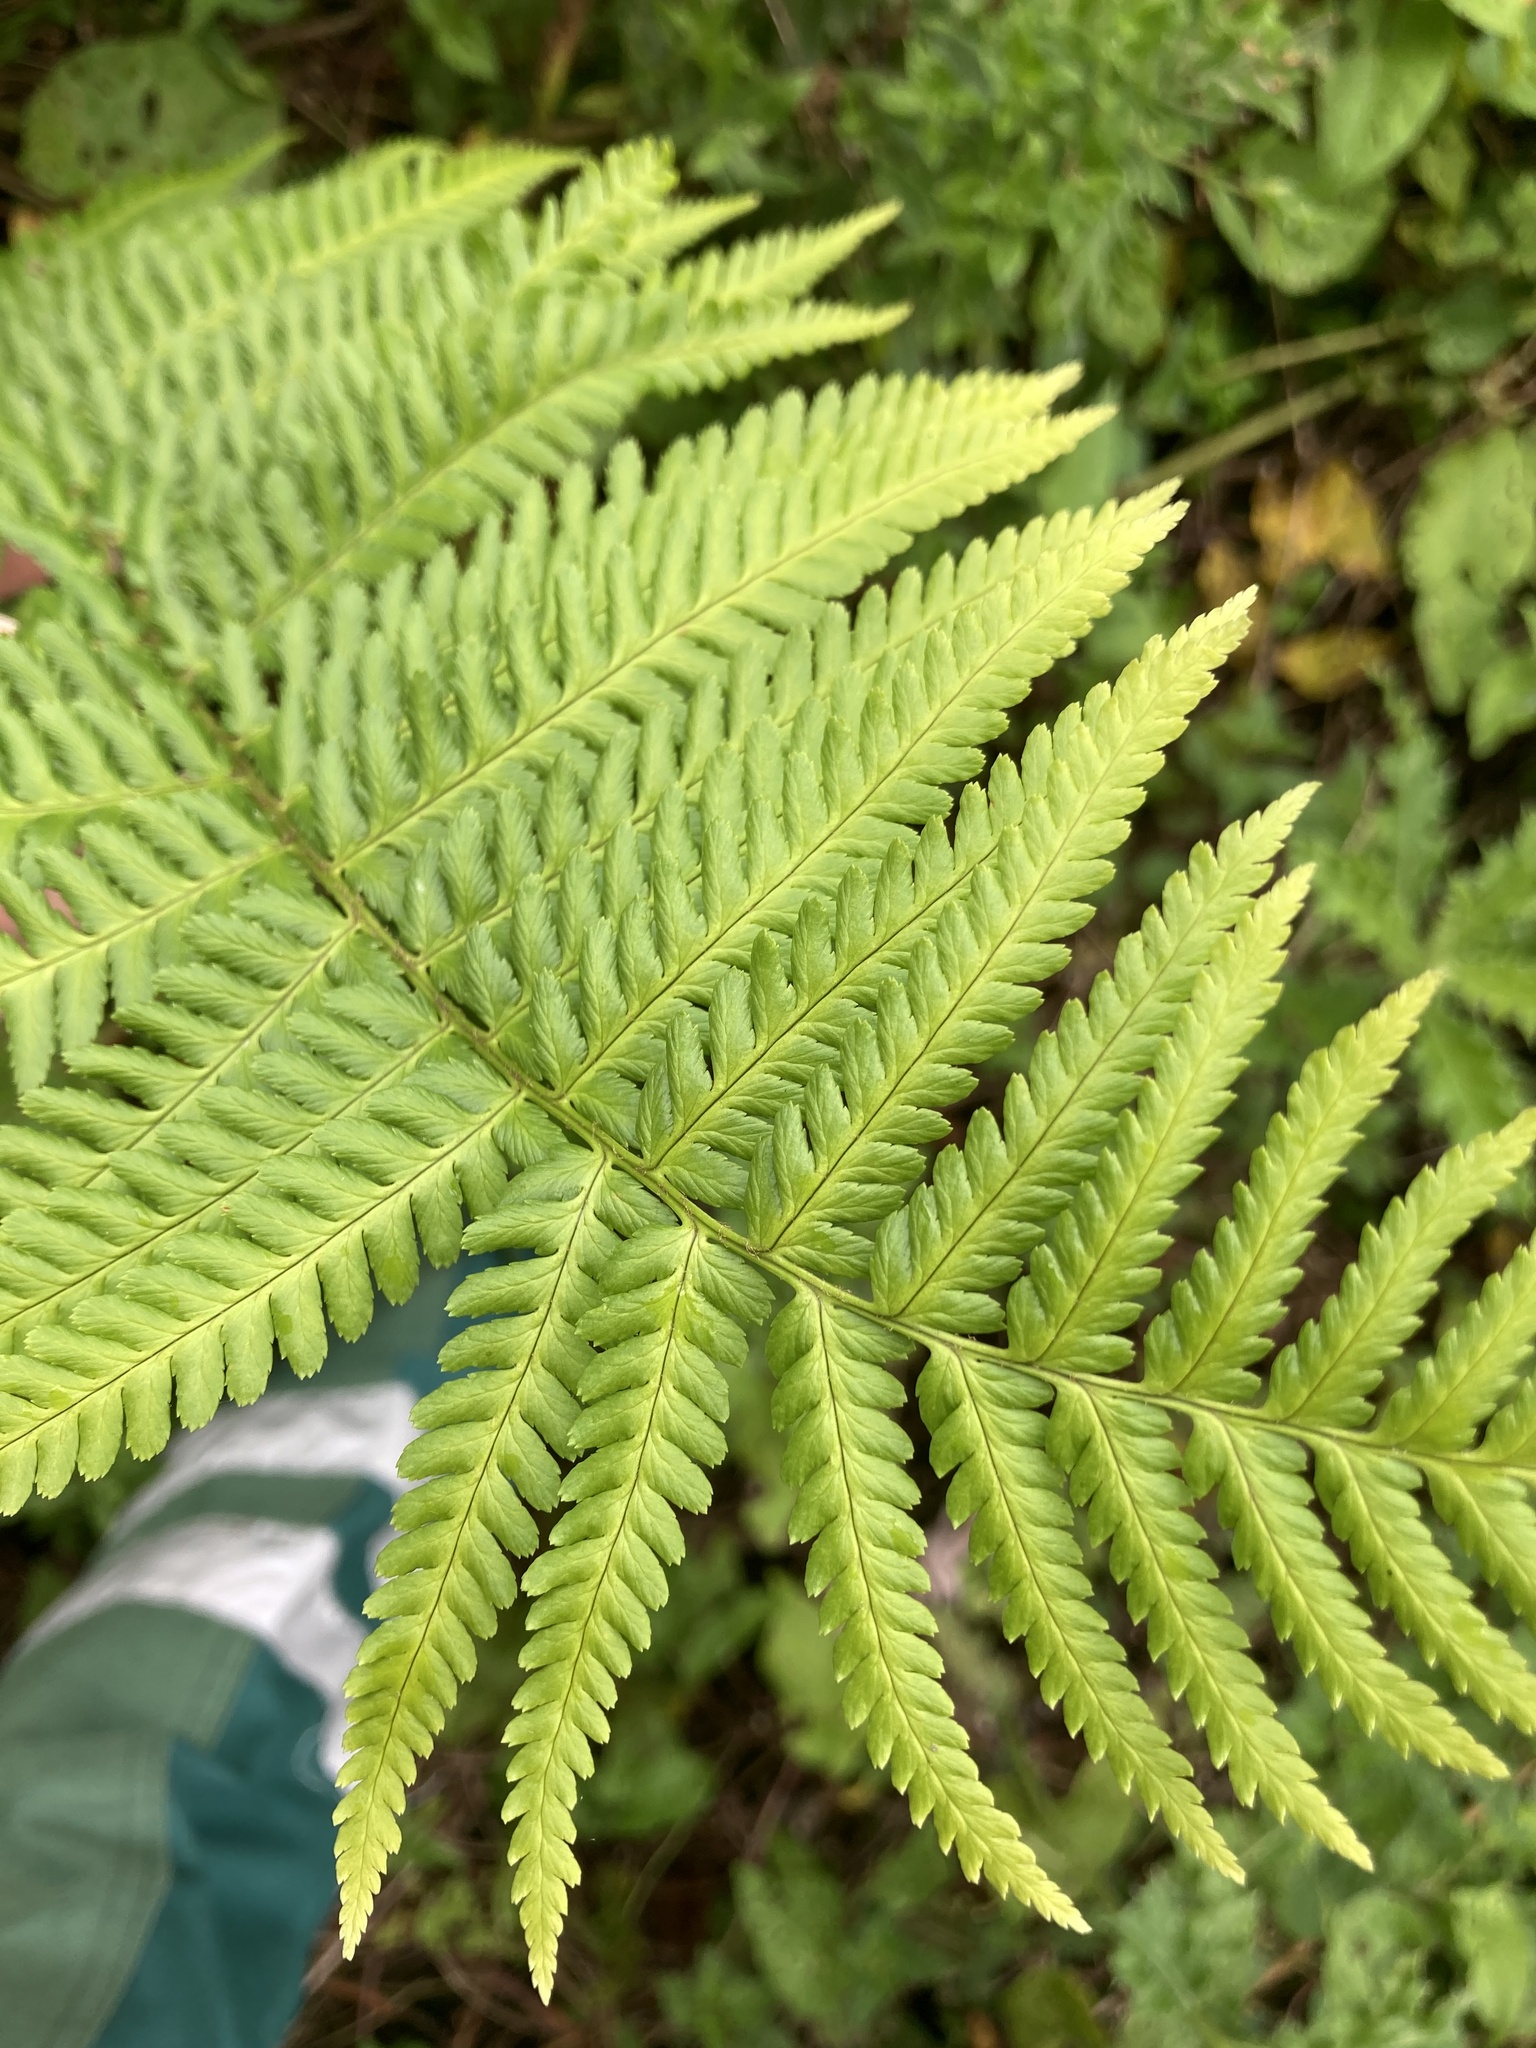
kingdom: Plantae
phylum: Tracheophyta
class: Polypodiopsida
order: Polypodiales
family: Dryopteridaceae
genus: Dryopteris
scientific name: Dryopteris filix-mas
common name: Male fern
